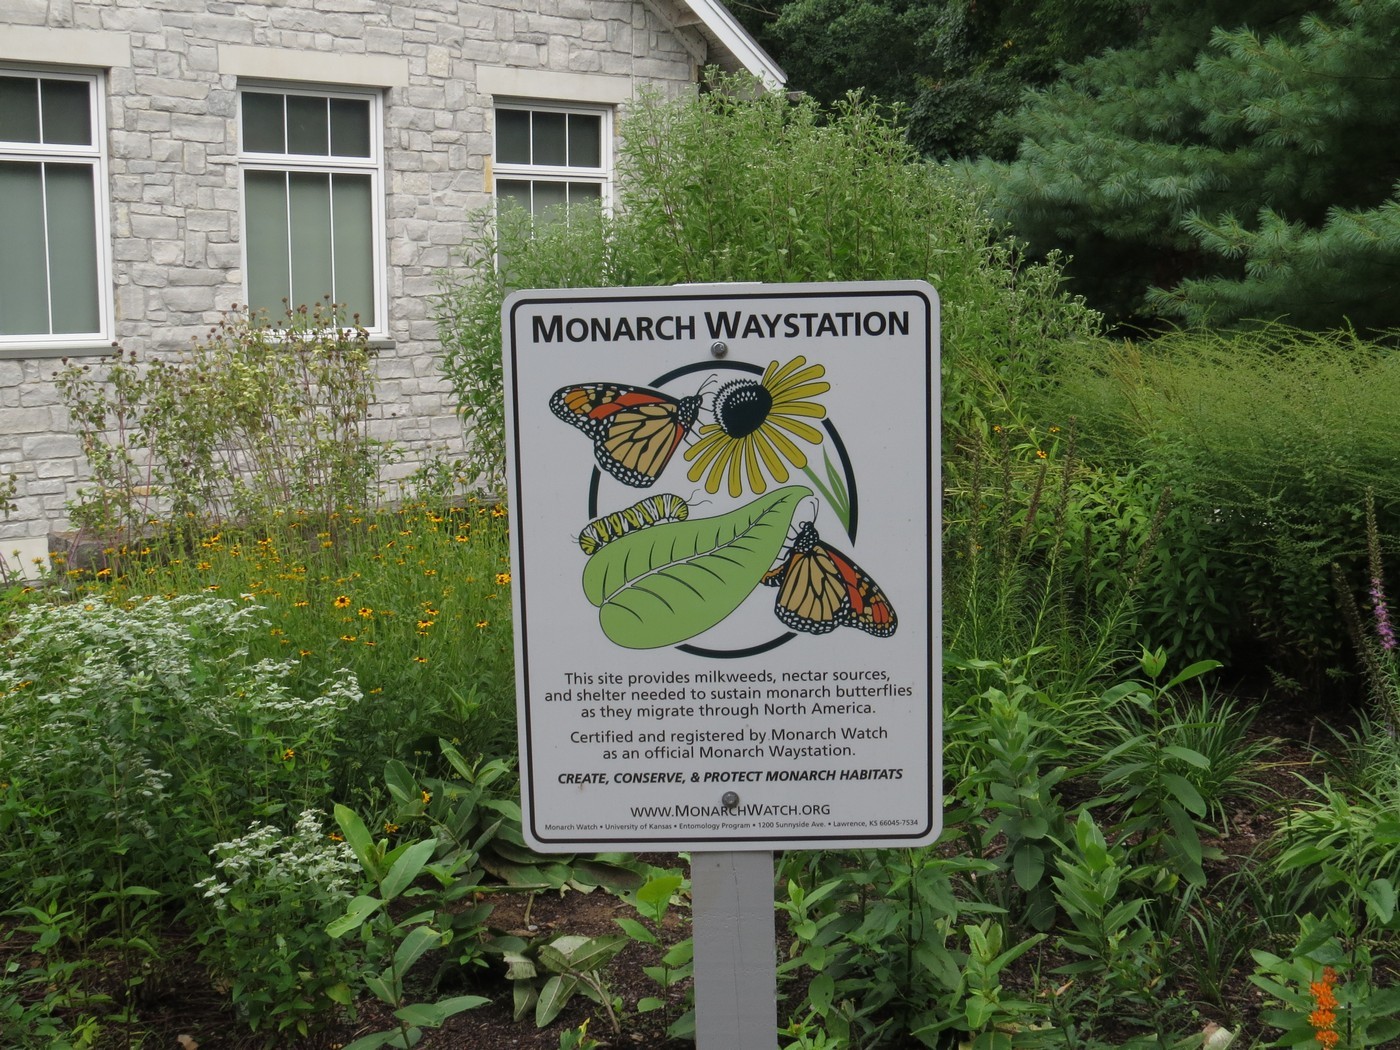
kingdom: Animalia
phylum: Arthropoda
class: Insecta
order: Lepidoptera
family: Nymphalidae
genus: Danaus
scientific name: Danaus plexippus
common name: Monarch
